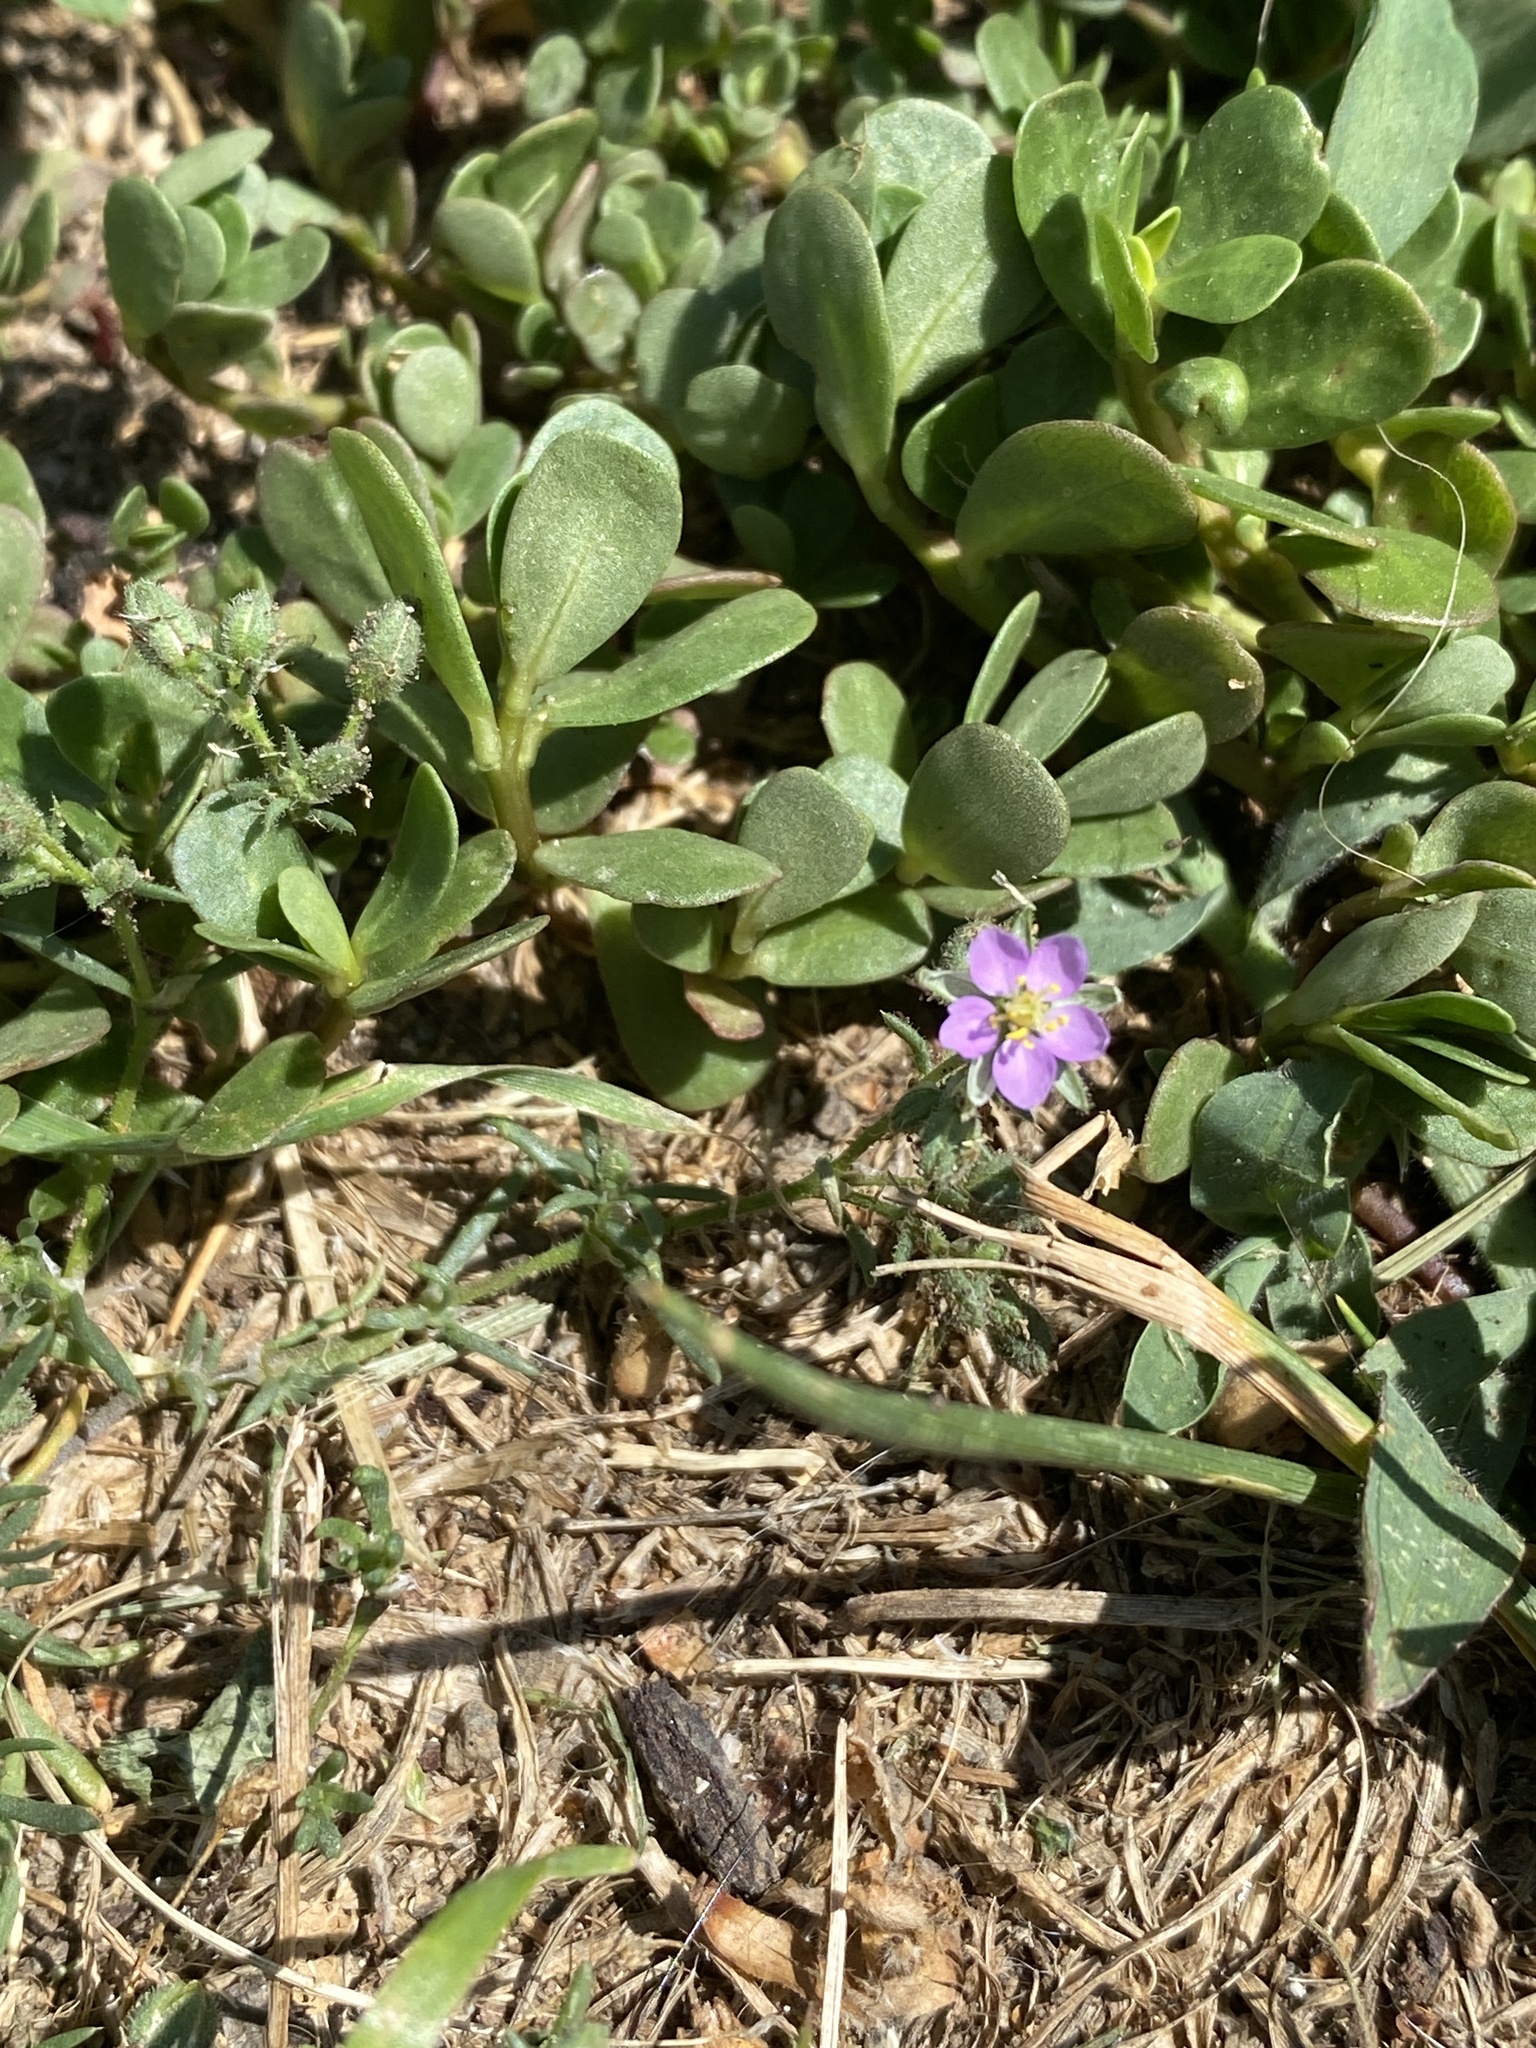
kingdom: Plantae
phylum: Tracheophyta
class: Magnoliopsida
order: Caryophyllales
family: Caryophyllaceae
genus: Spergularia
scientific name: Spergularia rubra
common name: Red sand-spurrey
